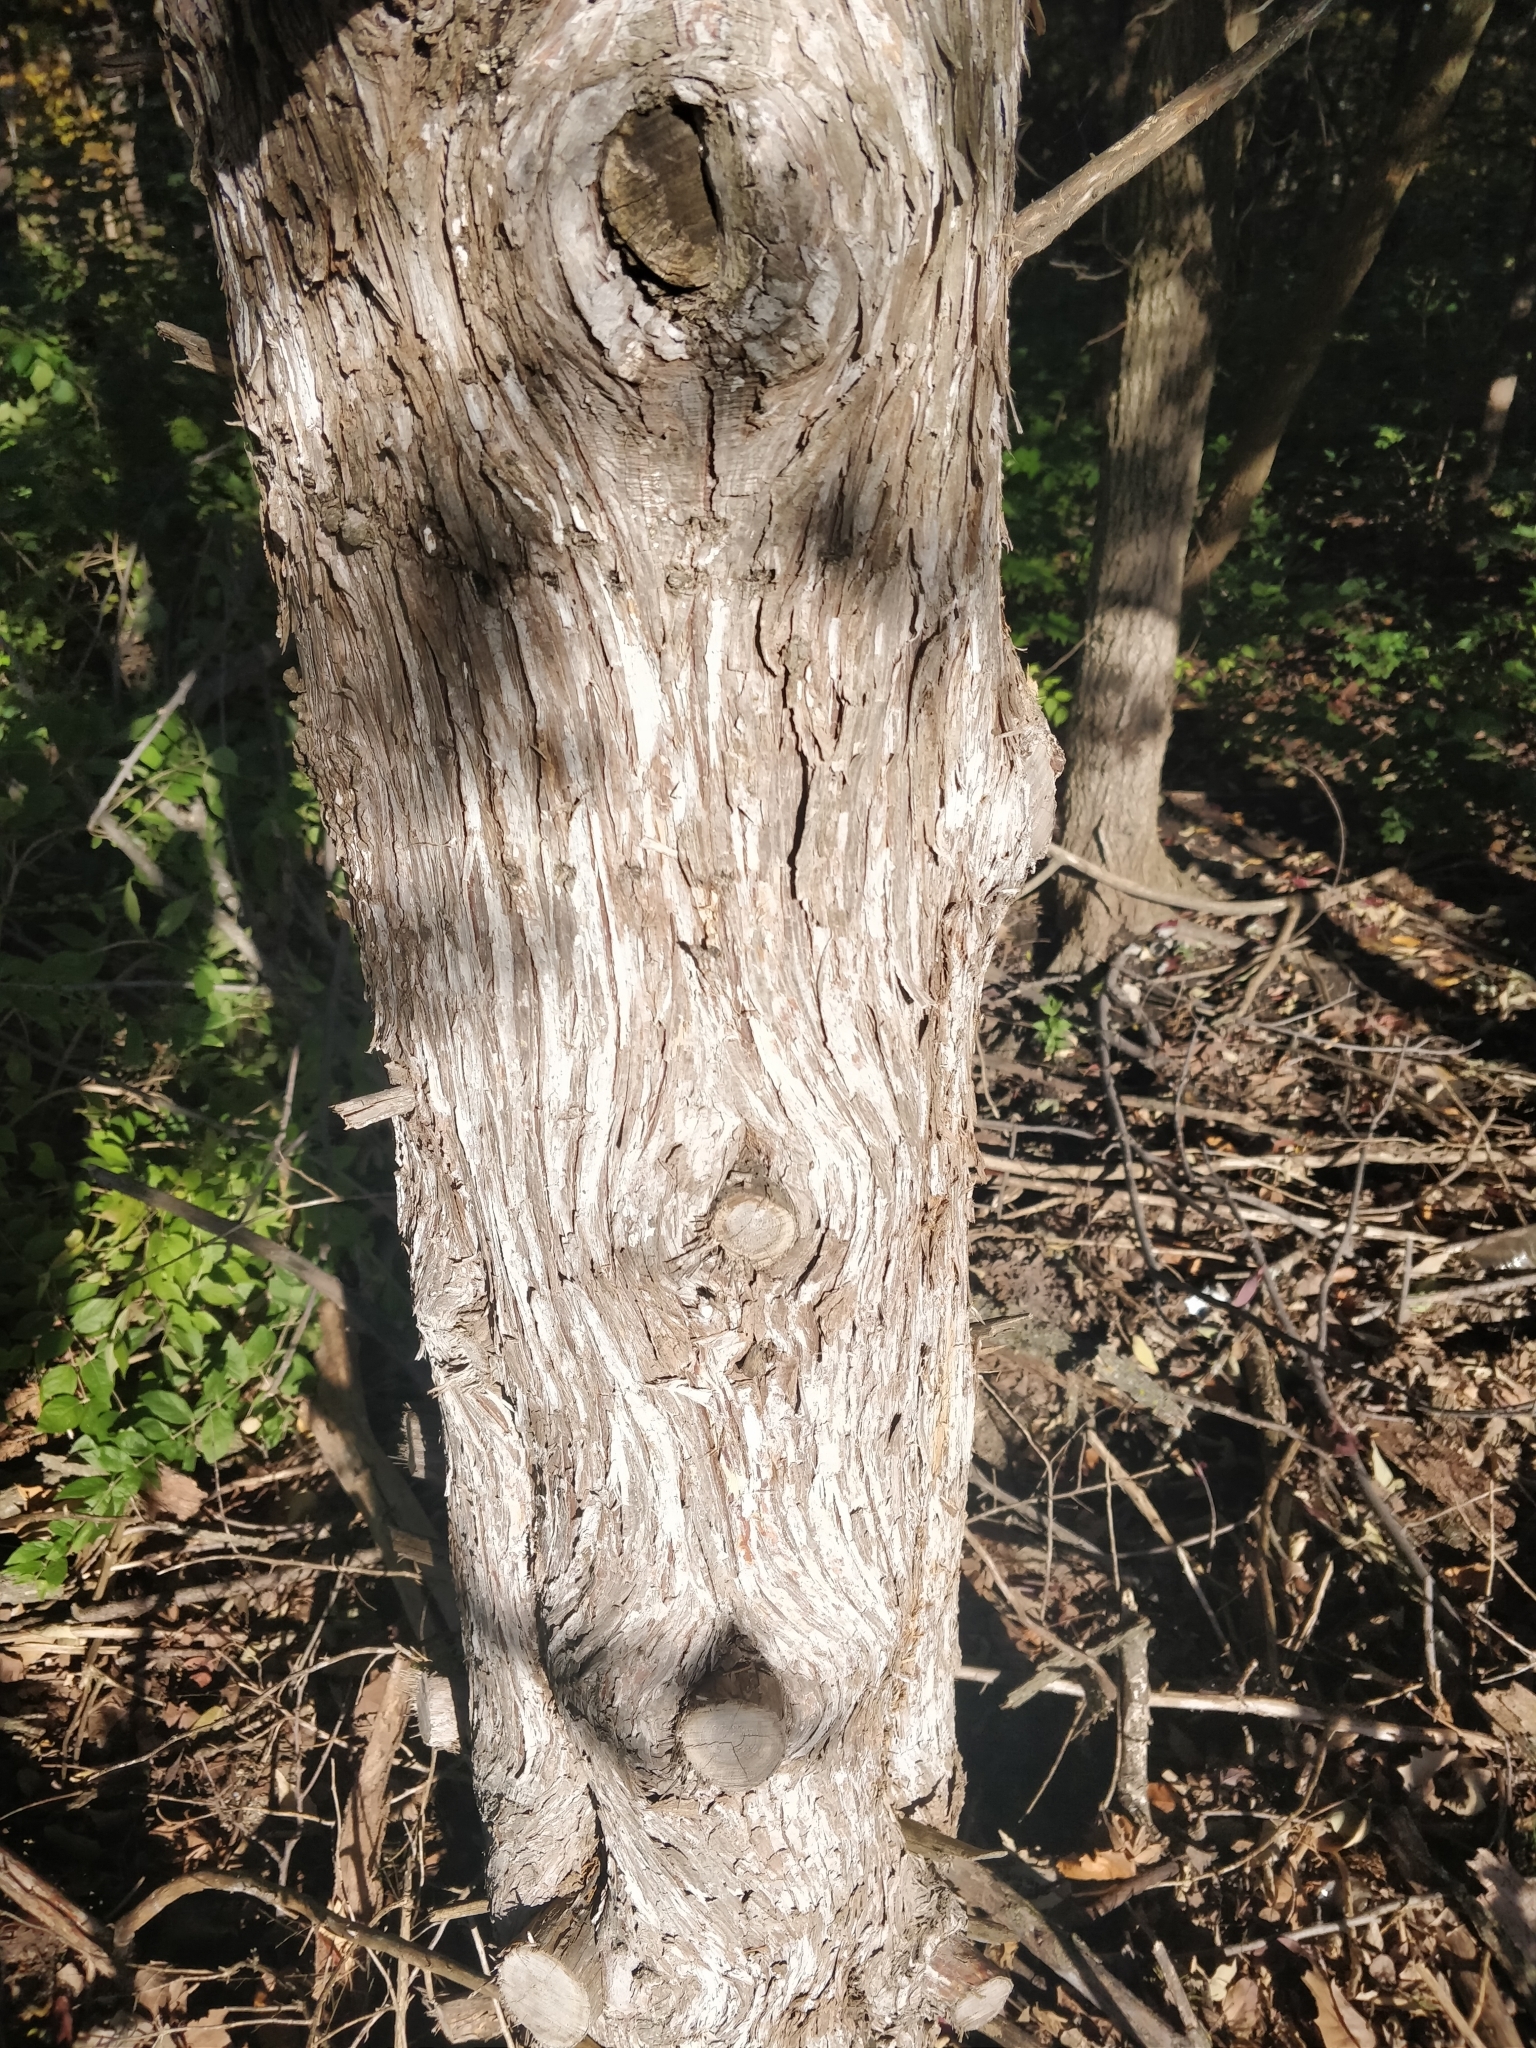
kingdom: Plantae
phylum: Tracheophyta
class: Pinopsida
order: Pinales
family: Cupressaceae
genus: Juniperus
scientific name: Juniperus virginiana
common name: Red juniper
